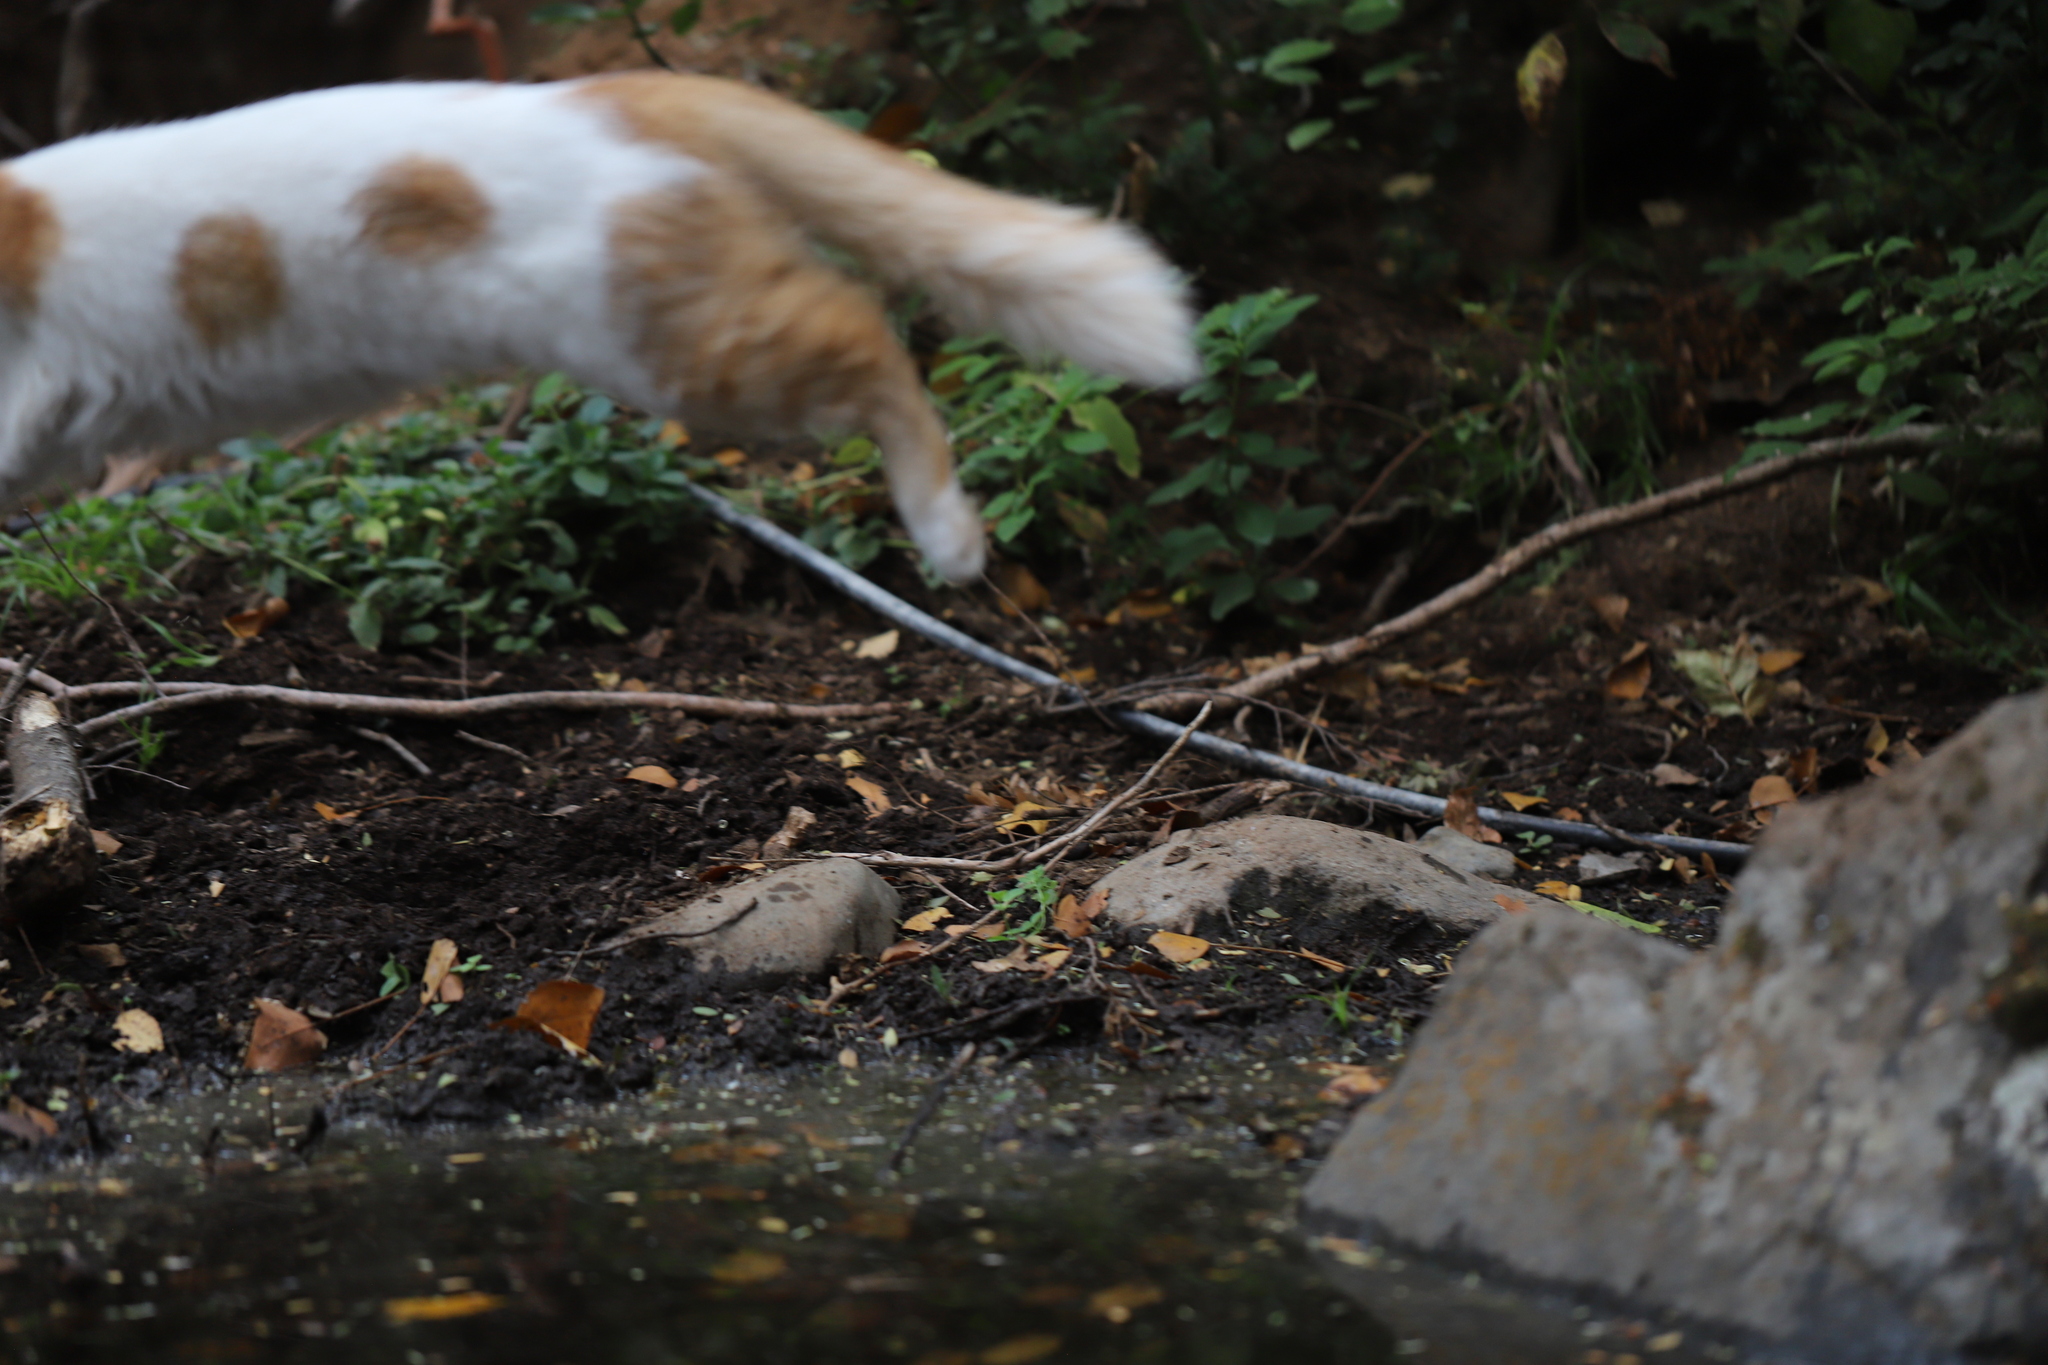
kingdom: Animalia
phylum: Chordata
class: Mammalia
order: Carnivora
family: Felidae
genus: Felis
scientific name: Felis catus
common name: Domestic cat
